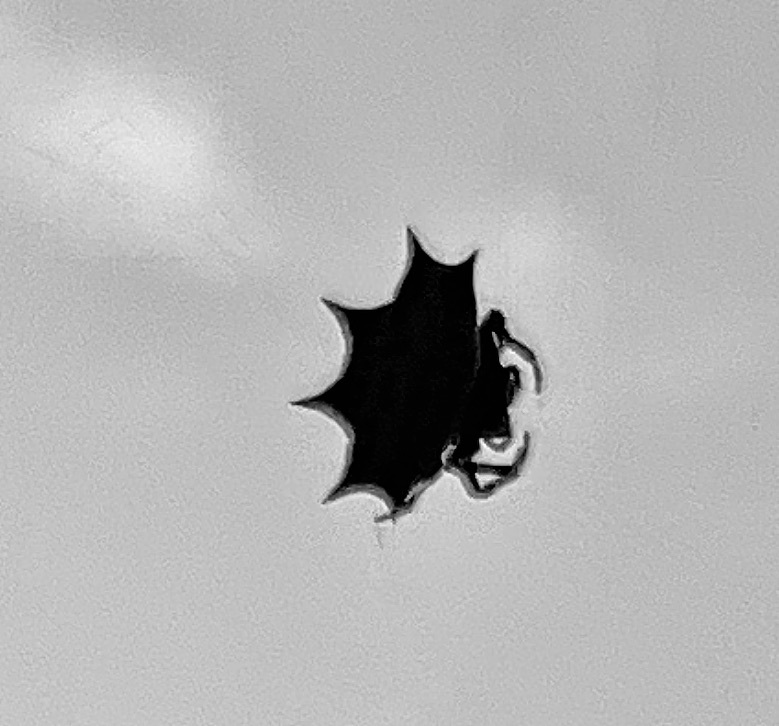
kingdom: Animalia
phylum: Arthropoda
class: Arachnida
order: Araneae
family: Araneidae
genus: Gasteracantha
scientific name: Gasteracantha cancriformis
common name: Orb weavers
